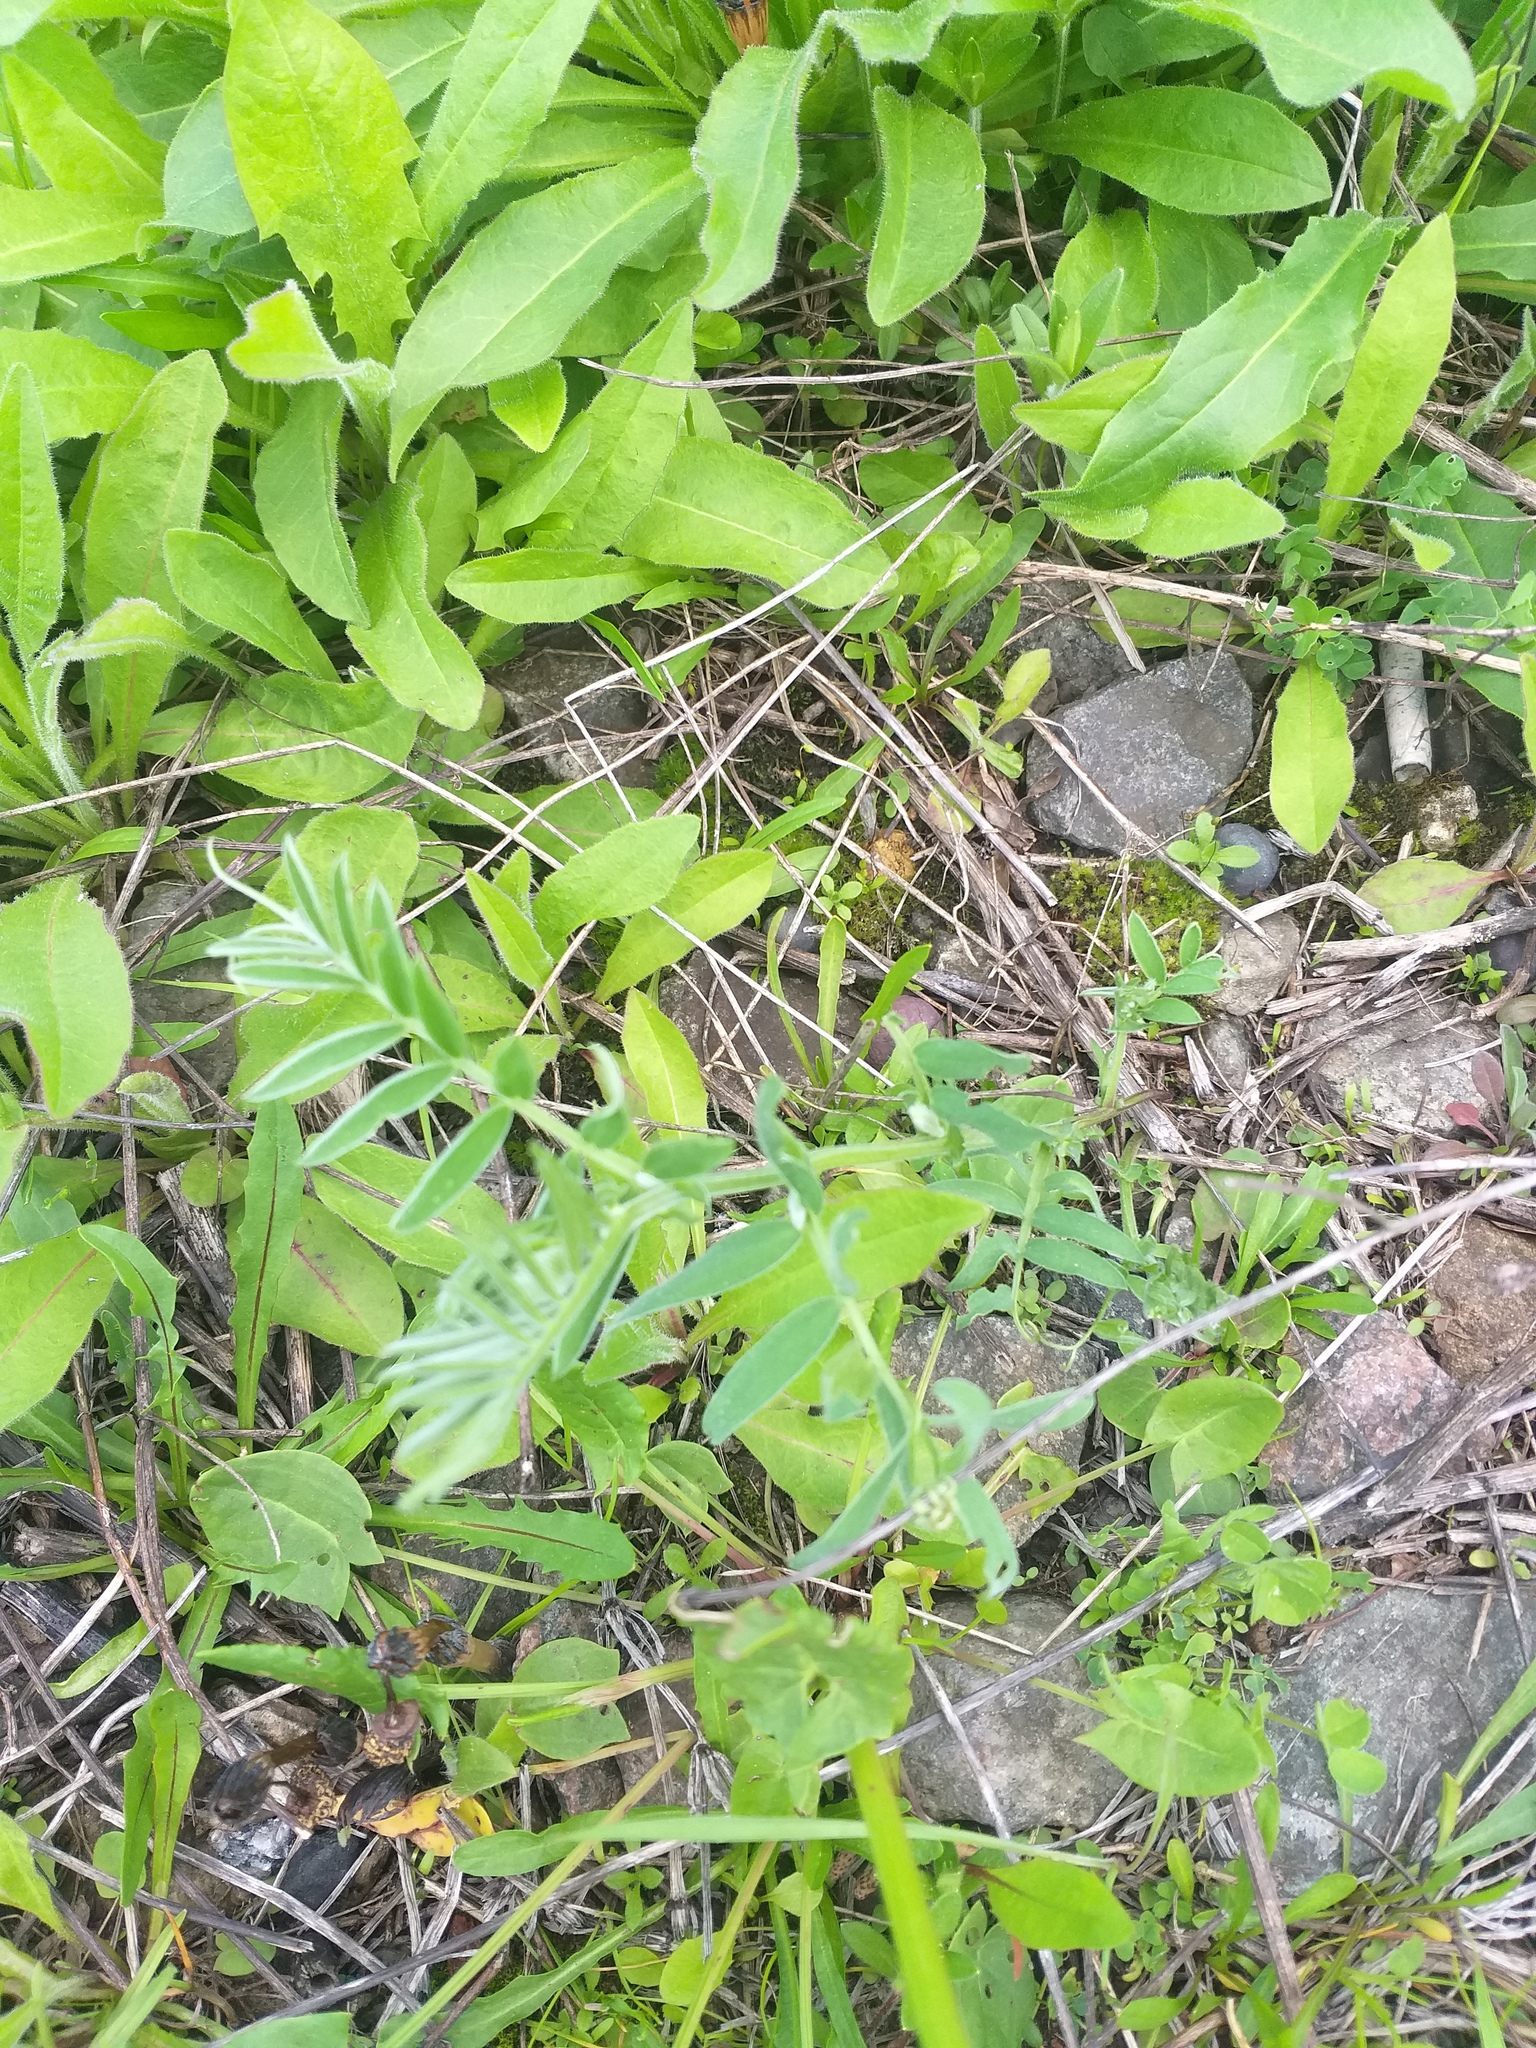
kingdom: Plantae
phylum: Tracheophyta
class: Magnoliopsida
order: Fabales
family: Fabaceae
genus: Vicia
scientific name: Vicia cracca
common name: Bird vetch
